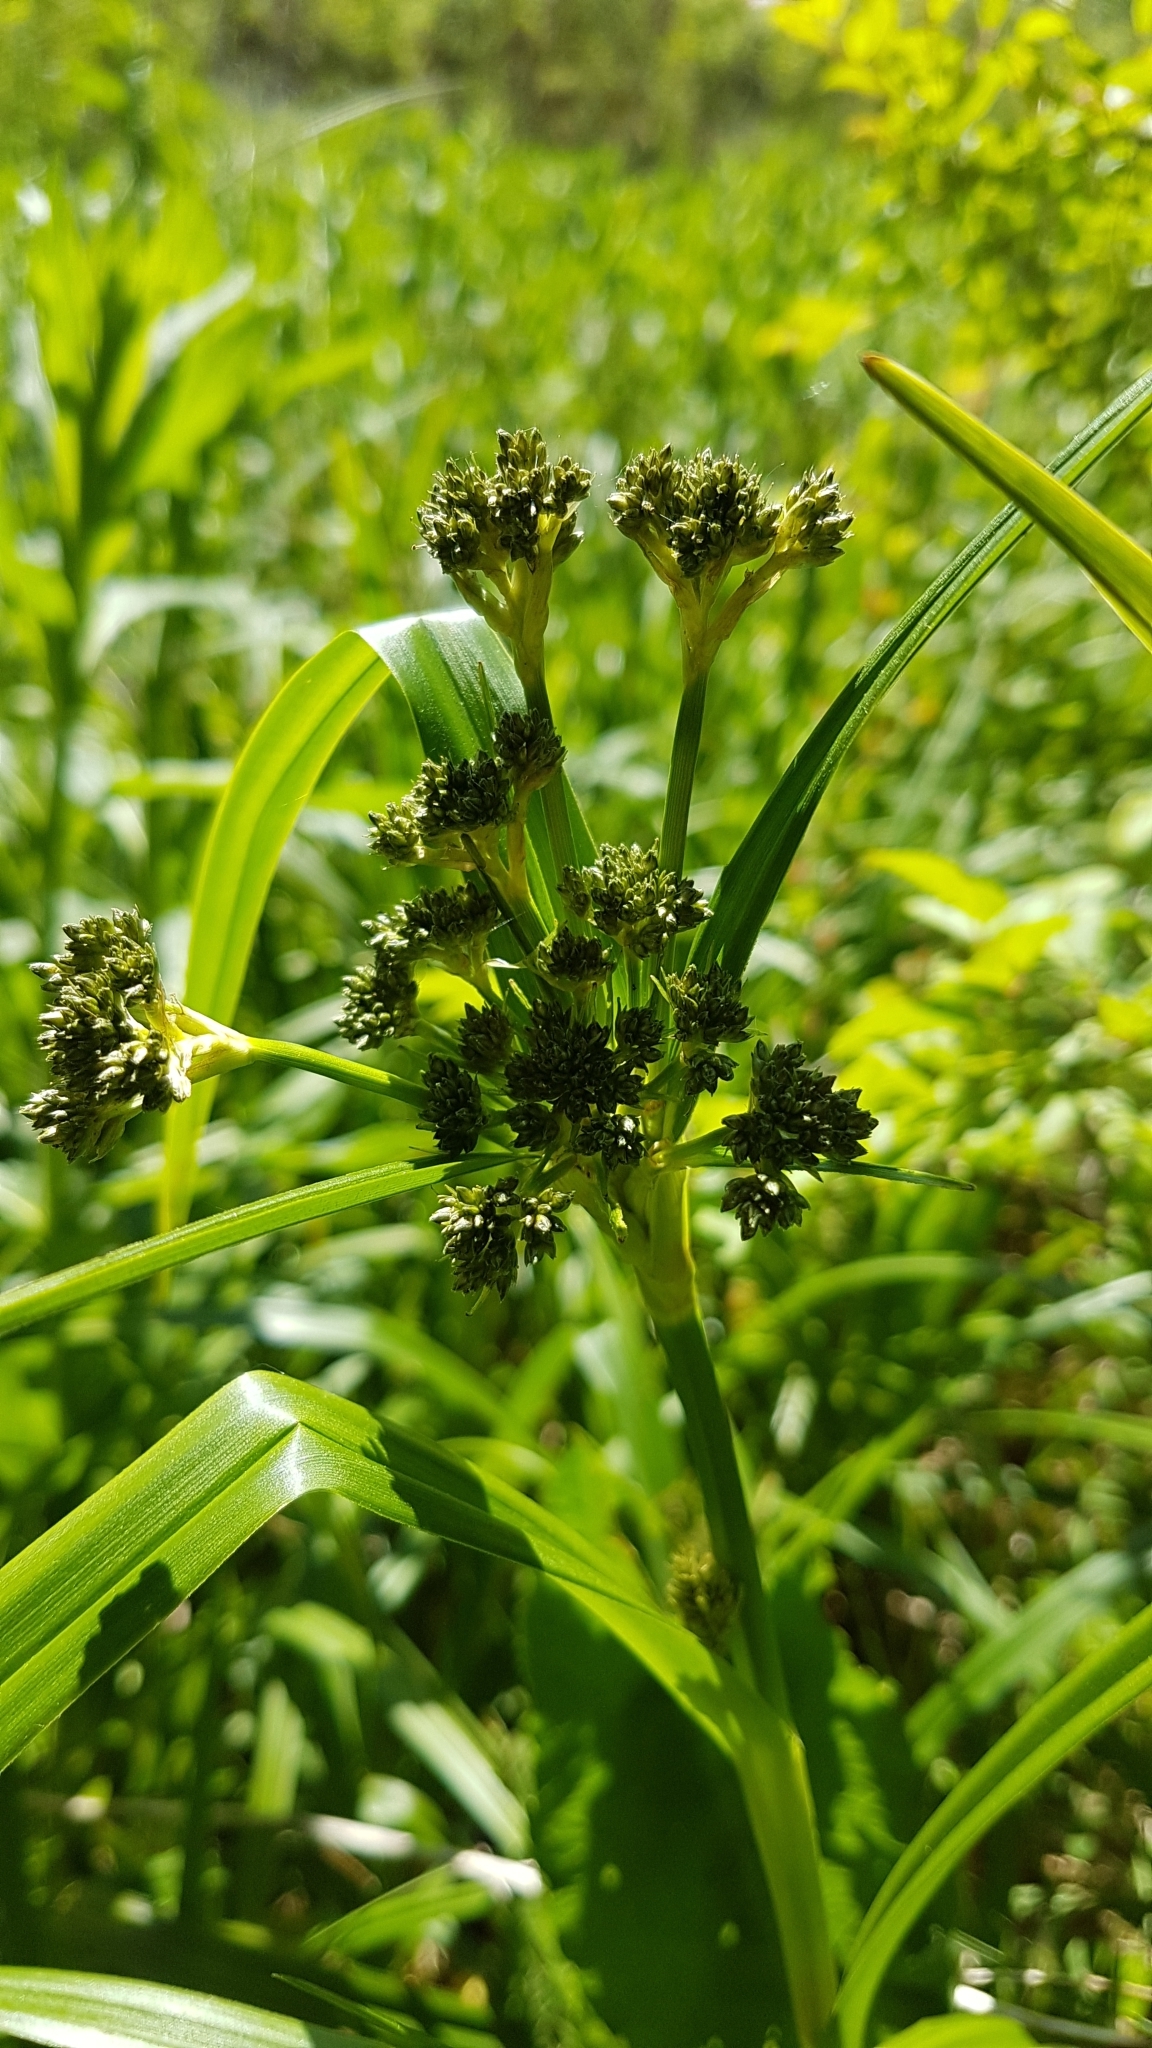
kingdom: Plantae
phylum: Tracheophyta
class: Liliopsida
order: Poales
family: Cyperaceae
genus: Scirpus
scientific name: Scirpus sylvaticus
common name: Wood club-rush
